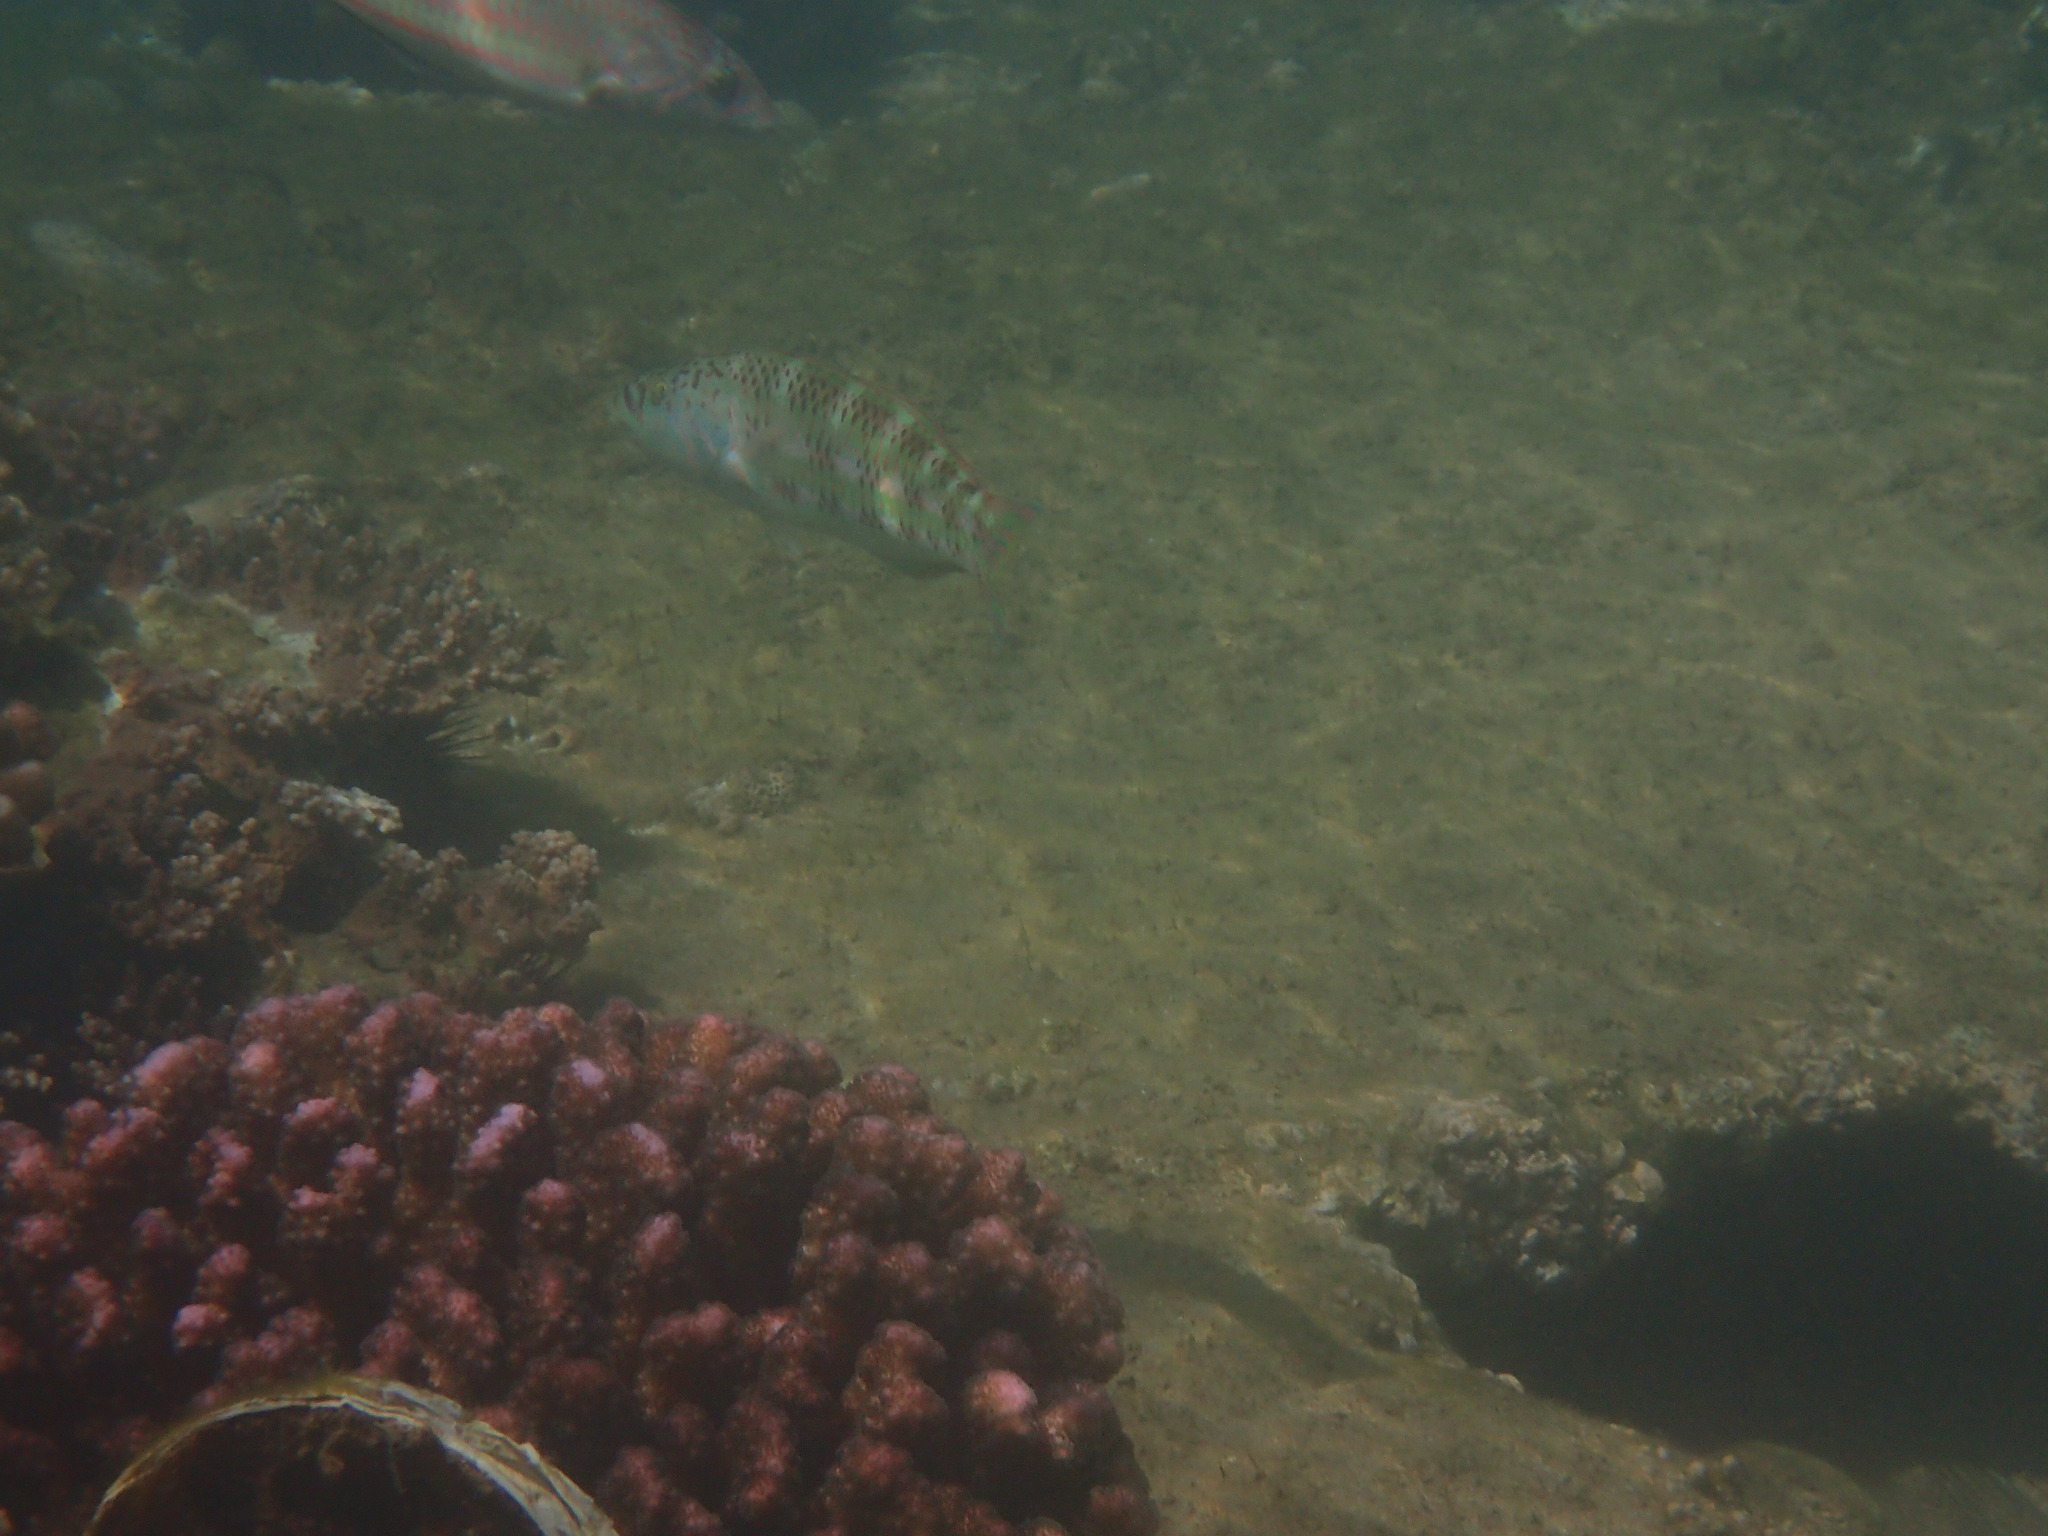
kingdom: Animalia
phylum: Chordata
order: Perciformes
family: Labridae
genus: Thalassoma
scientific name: Thalassoma purpureum
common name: Parrotfish
